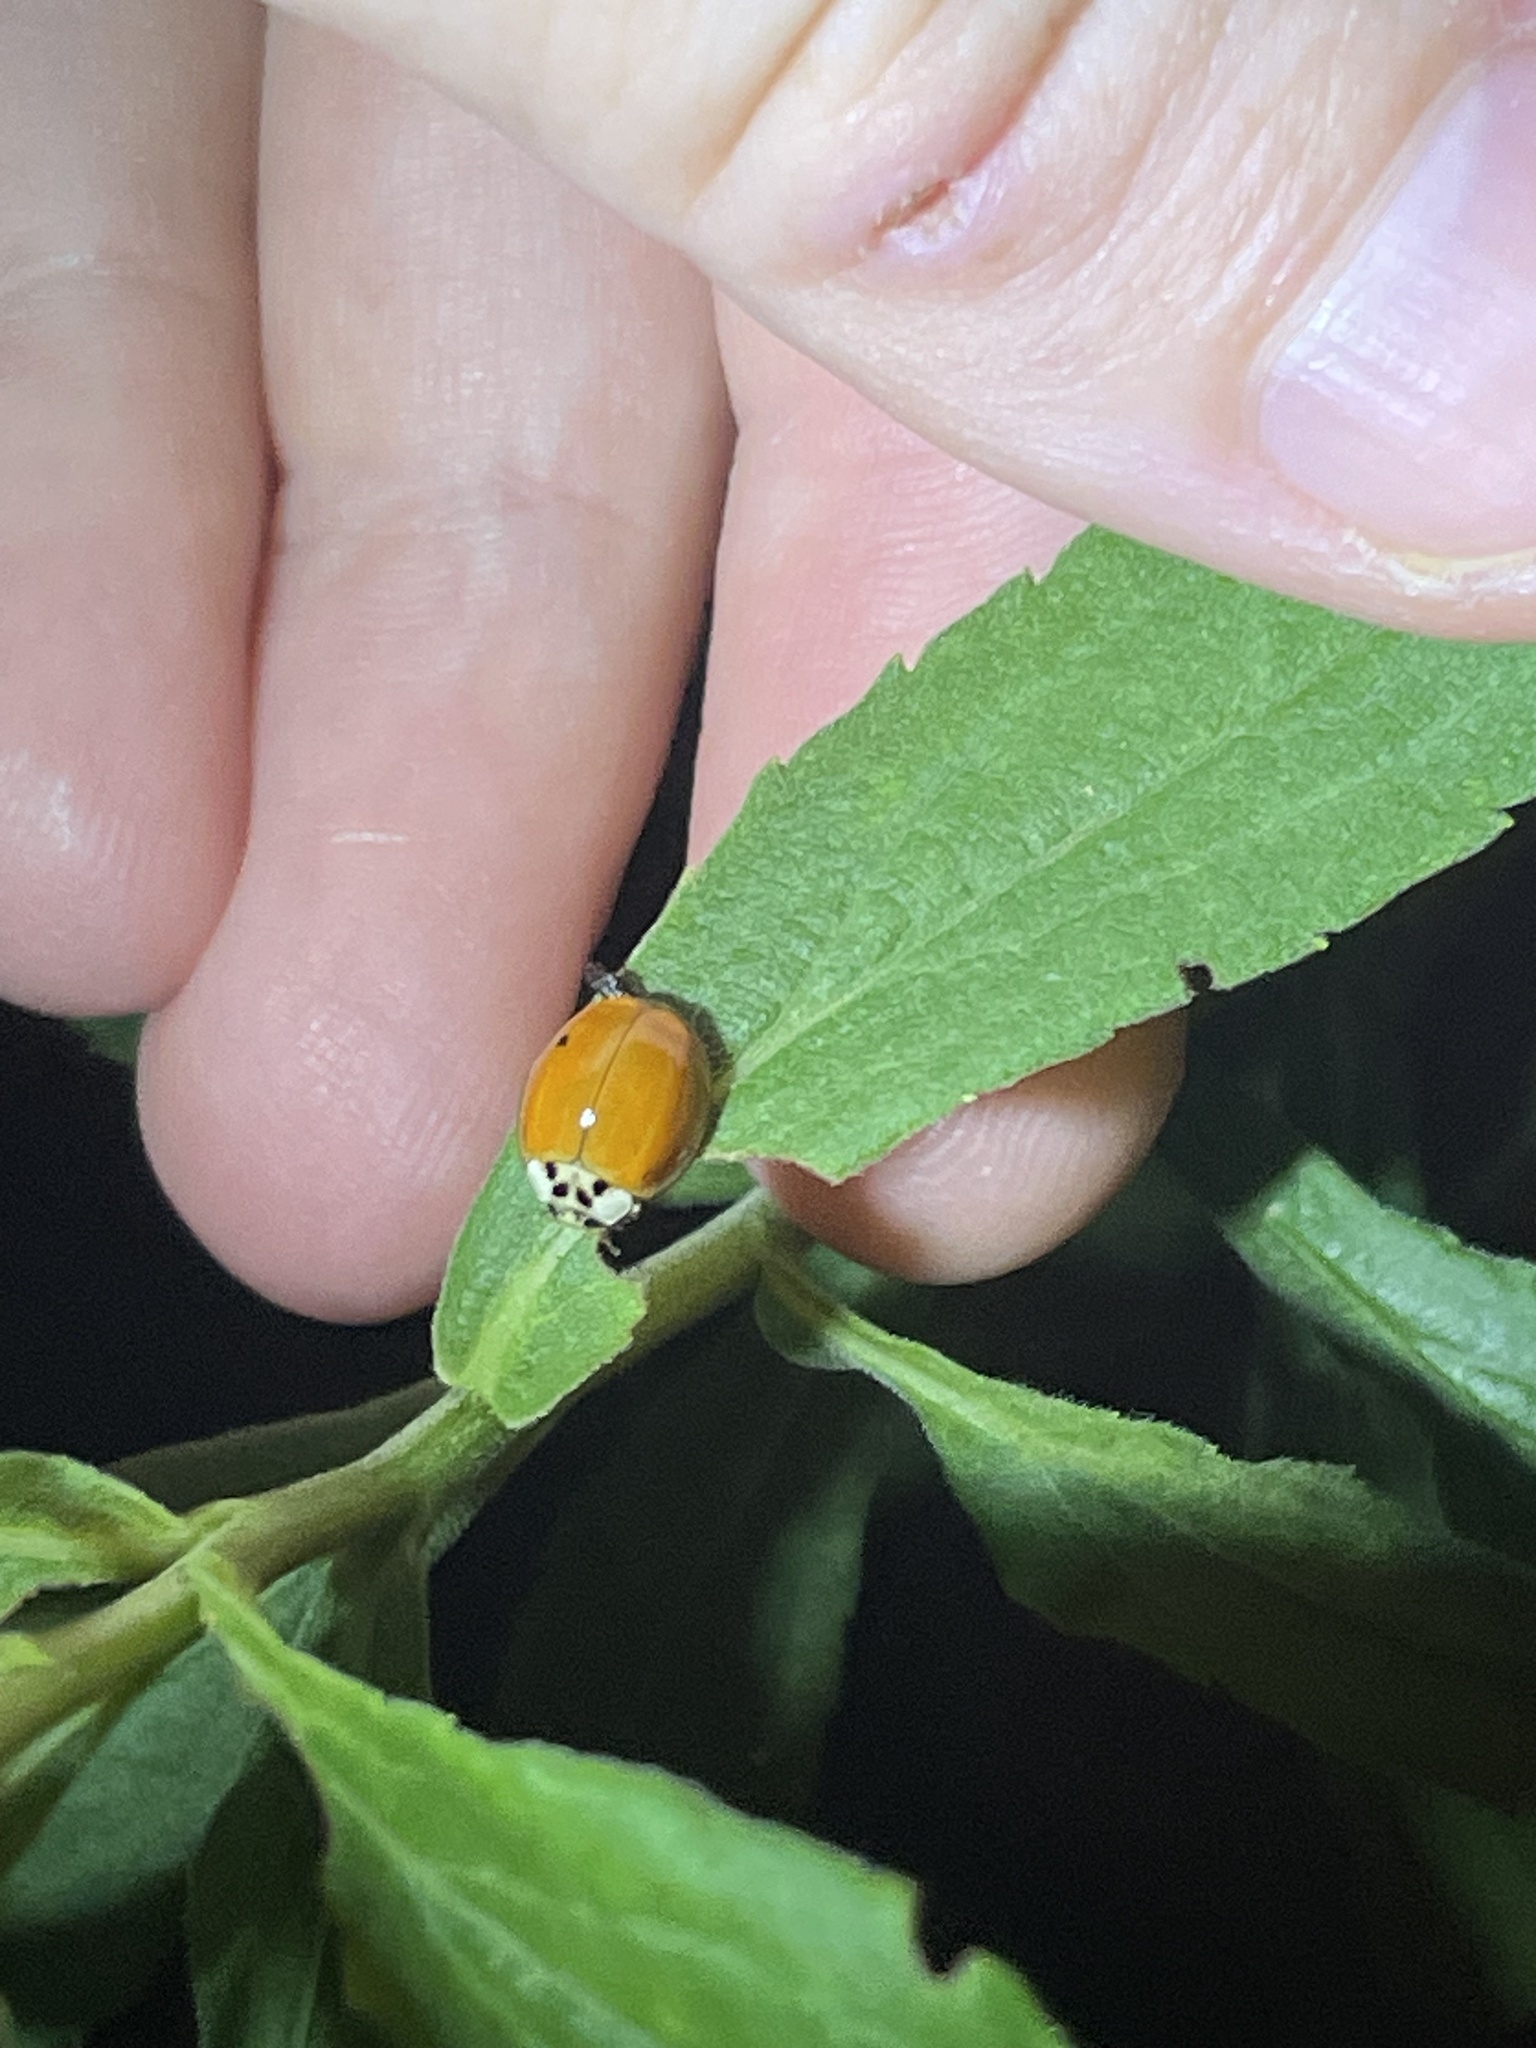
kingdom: Animalia
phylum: Arthropoda
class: Insecta
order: Coleoptera
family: Coccinellidae
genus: Harmonia
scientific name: Harmonia axyridis
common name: Harlequin ladybird
